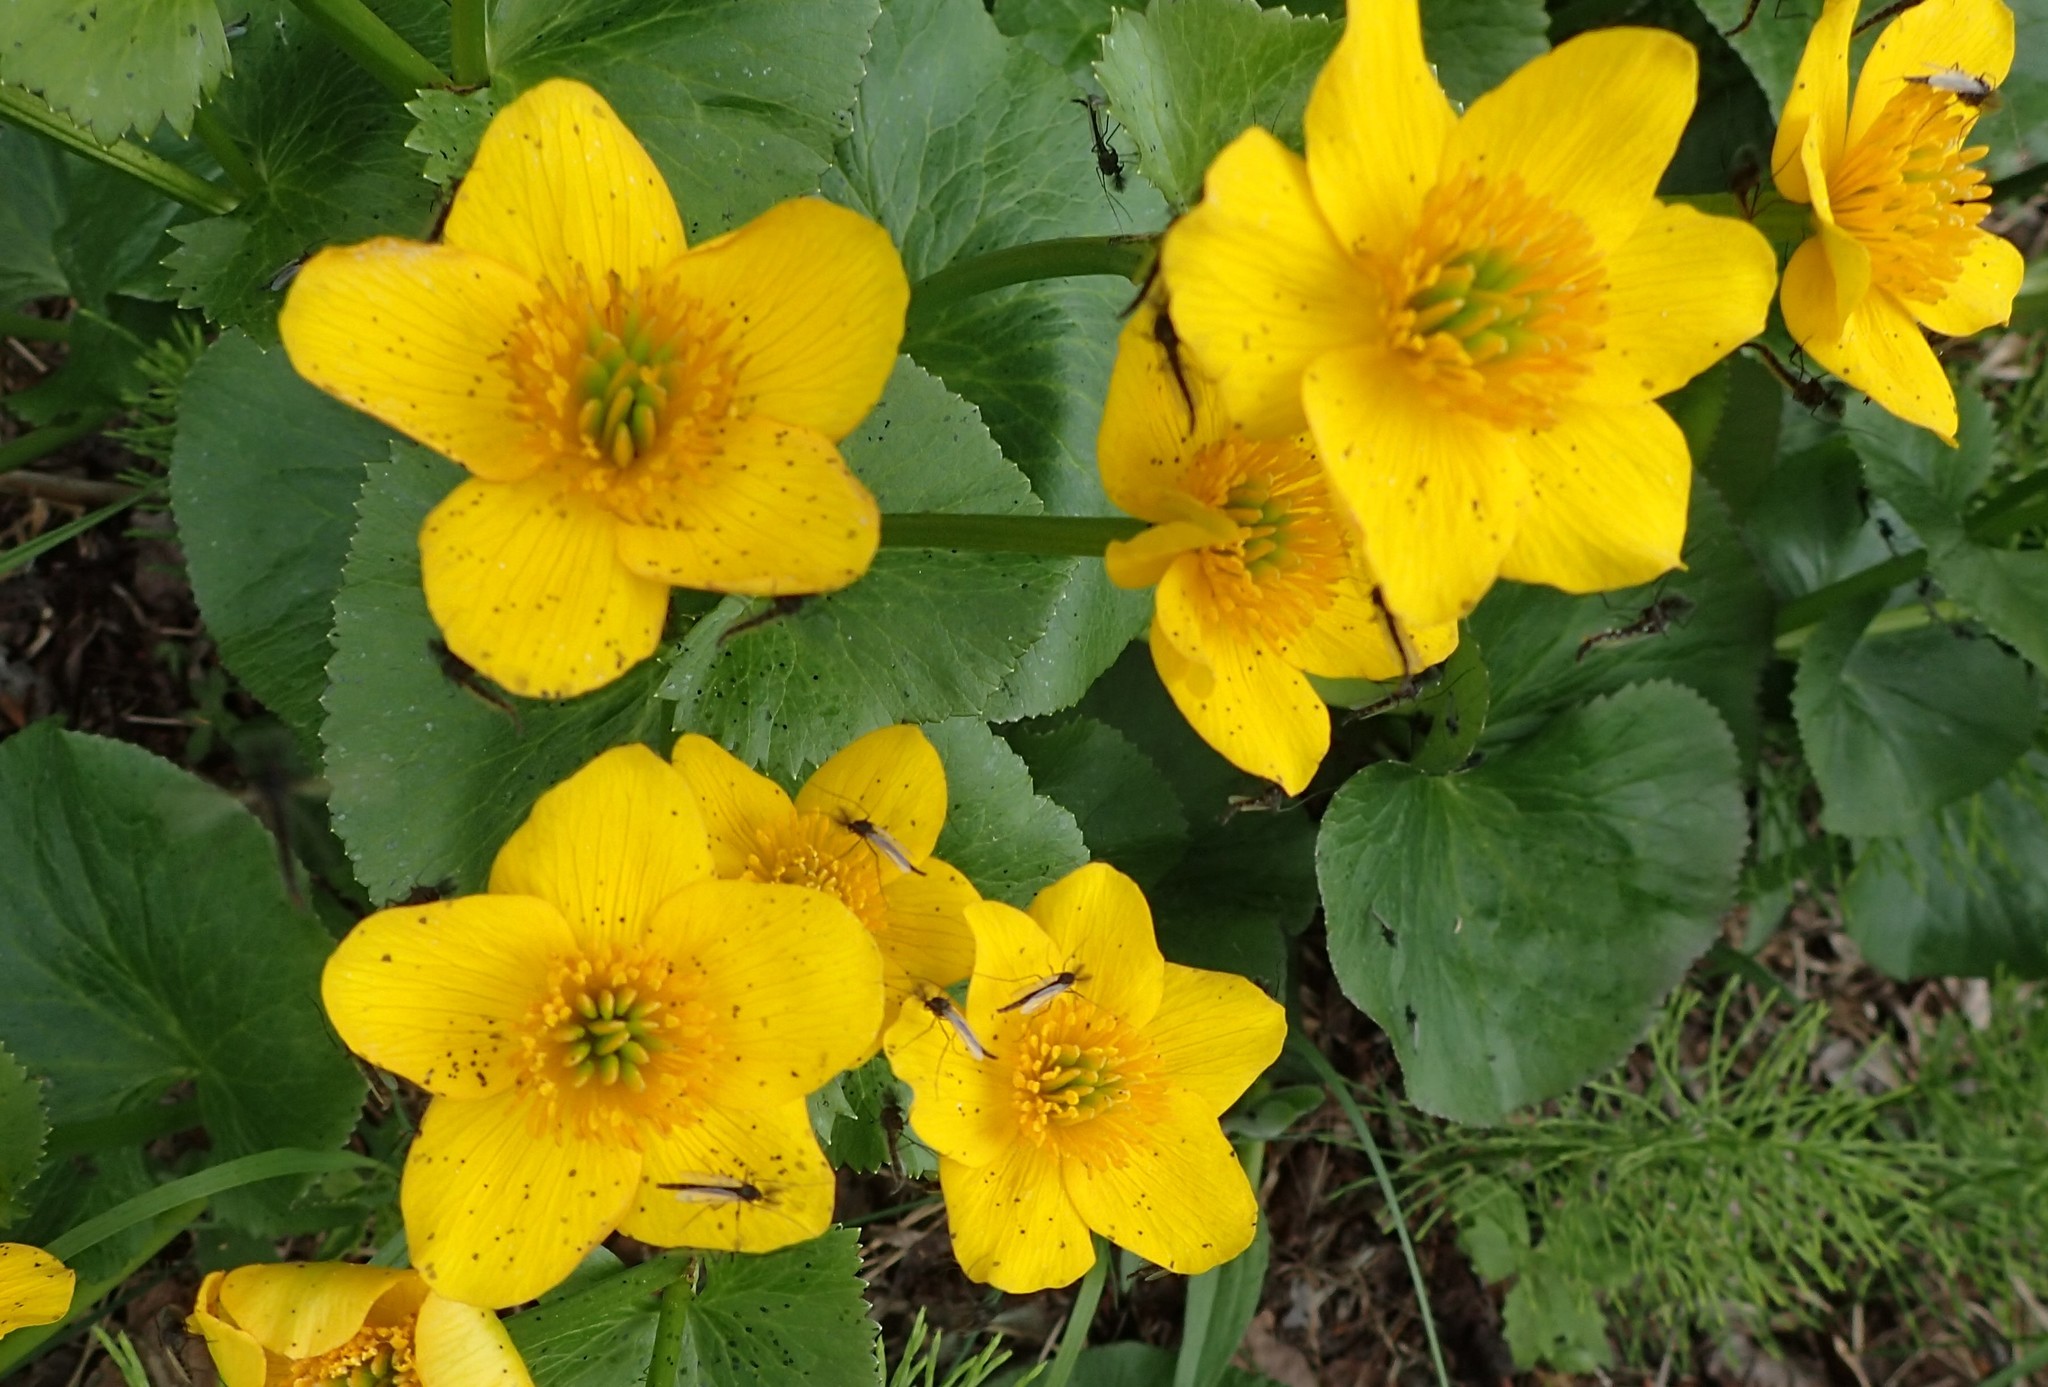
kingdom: Plantae
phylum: Tracheophyta
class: Magnoliopsida
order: Ranunculales
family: Ranunculaceae
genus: Caltha
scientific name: Caltha palustris
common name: Marsh marigold
